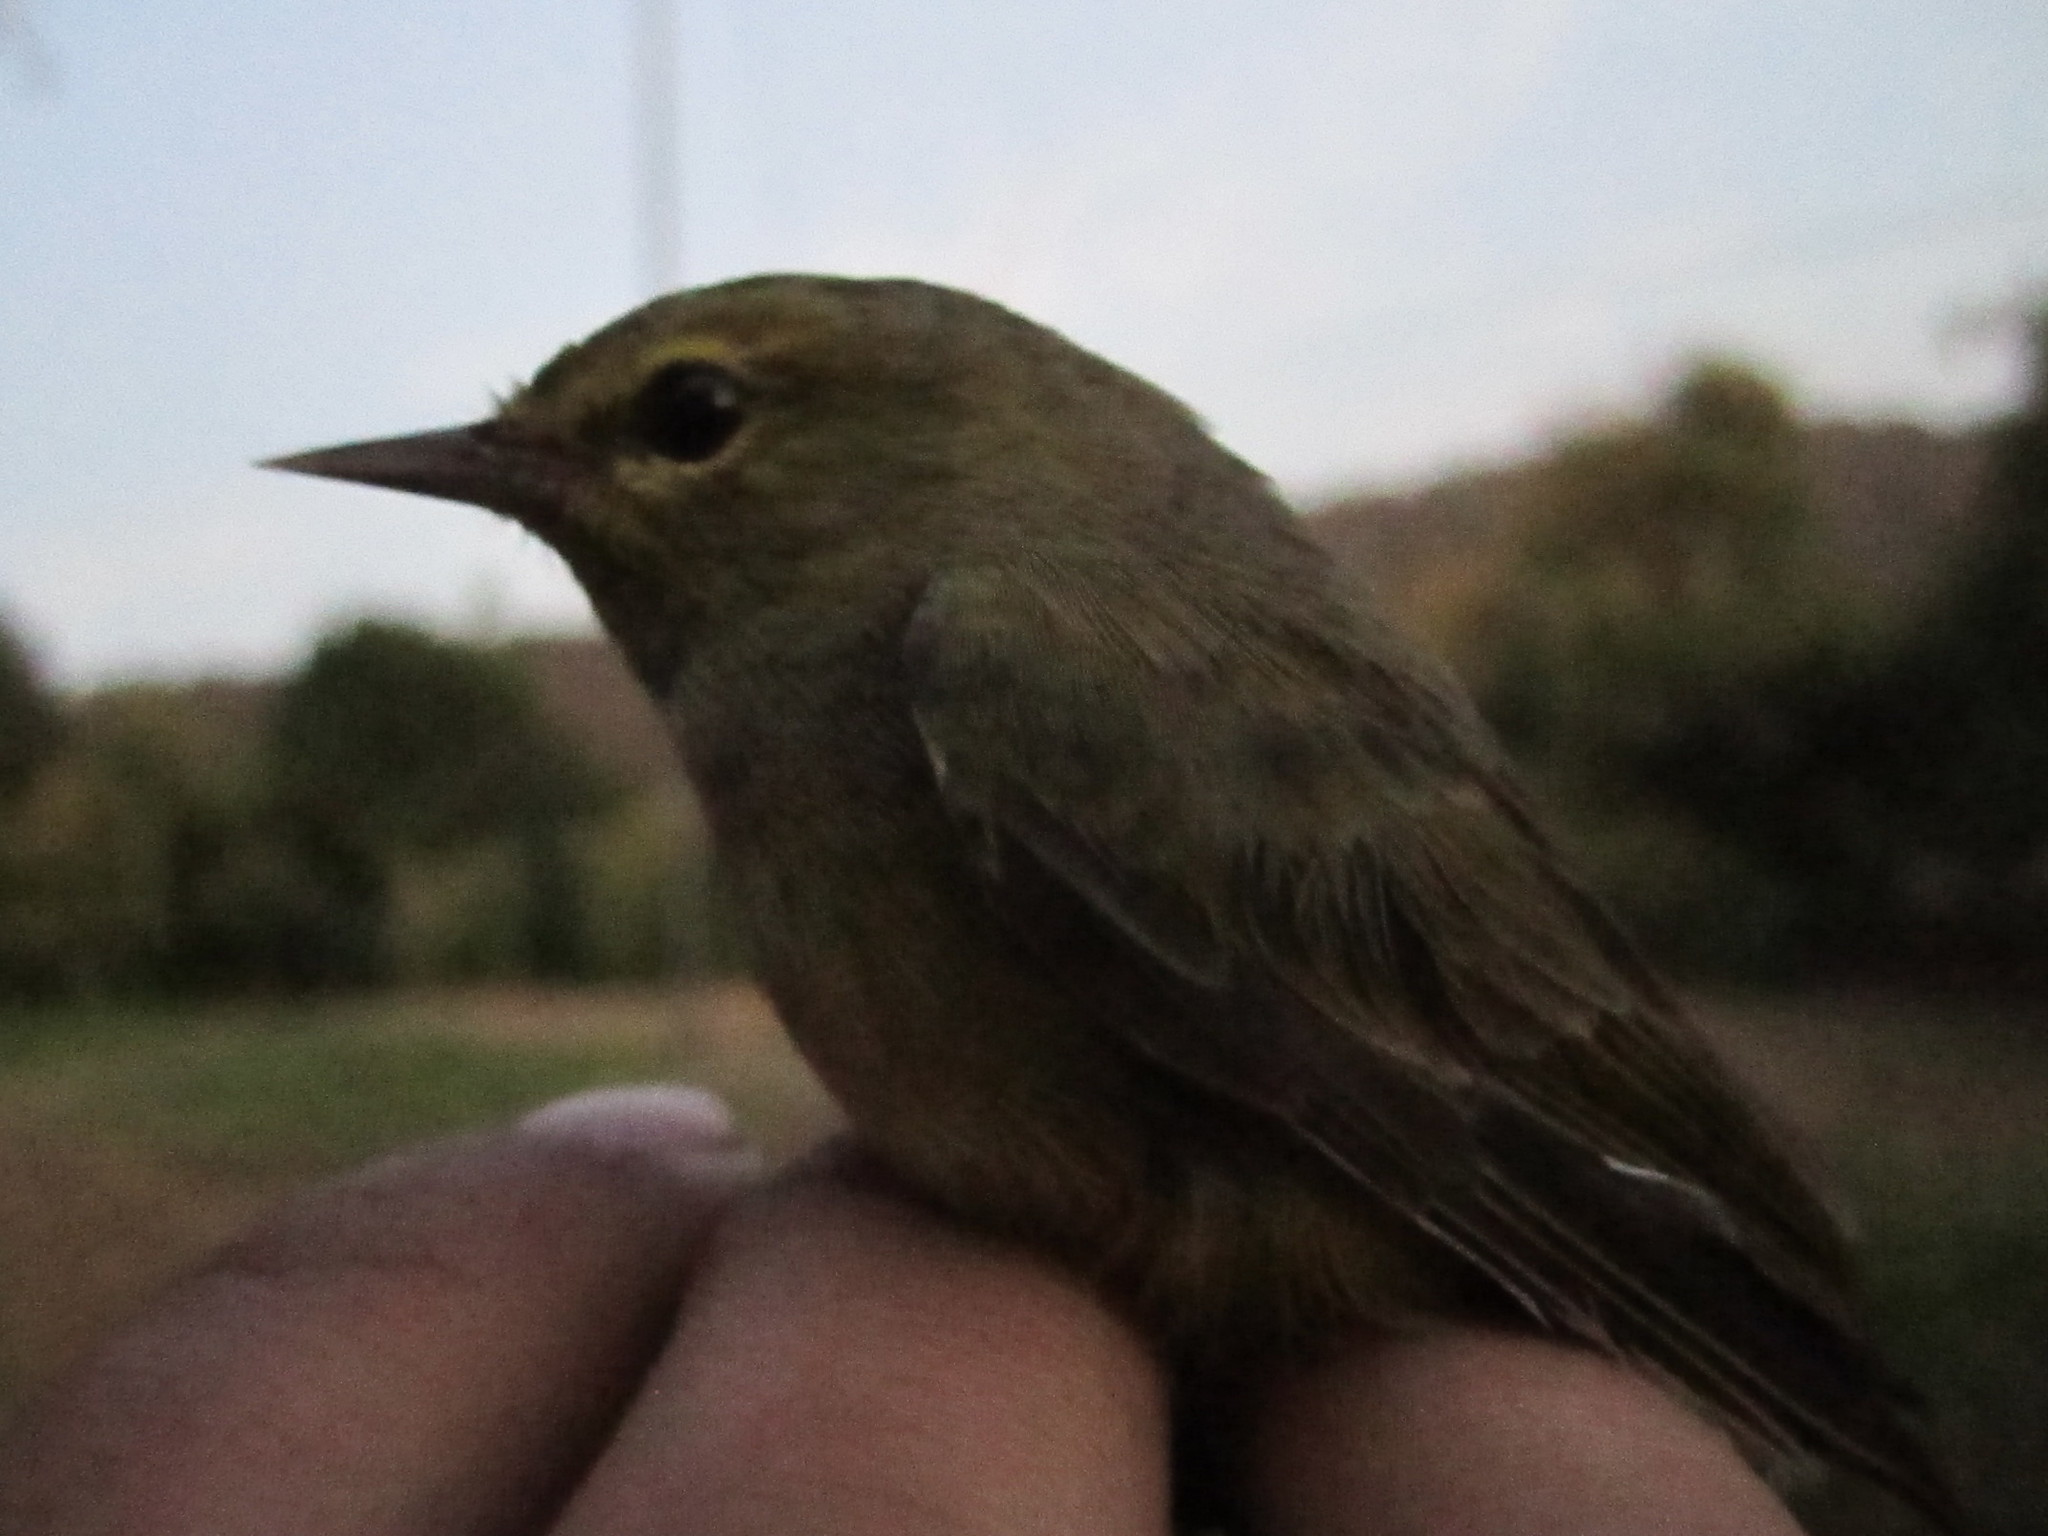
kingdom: Animalia
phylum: Chordata
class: Aves
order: Passeriformes
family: Parulidae
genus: Leiothlypis
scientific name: Leiothlypis celata
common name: Orange-crowned warbler
